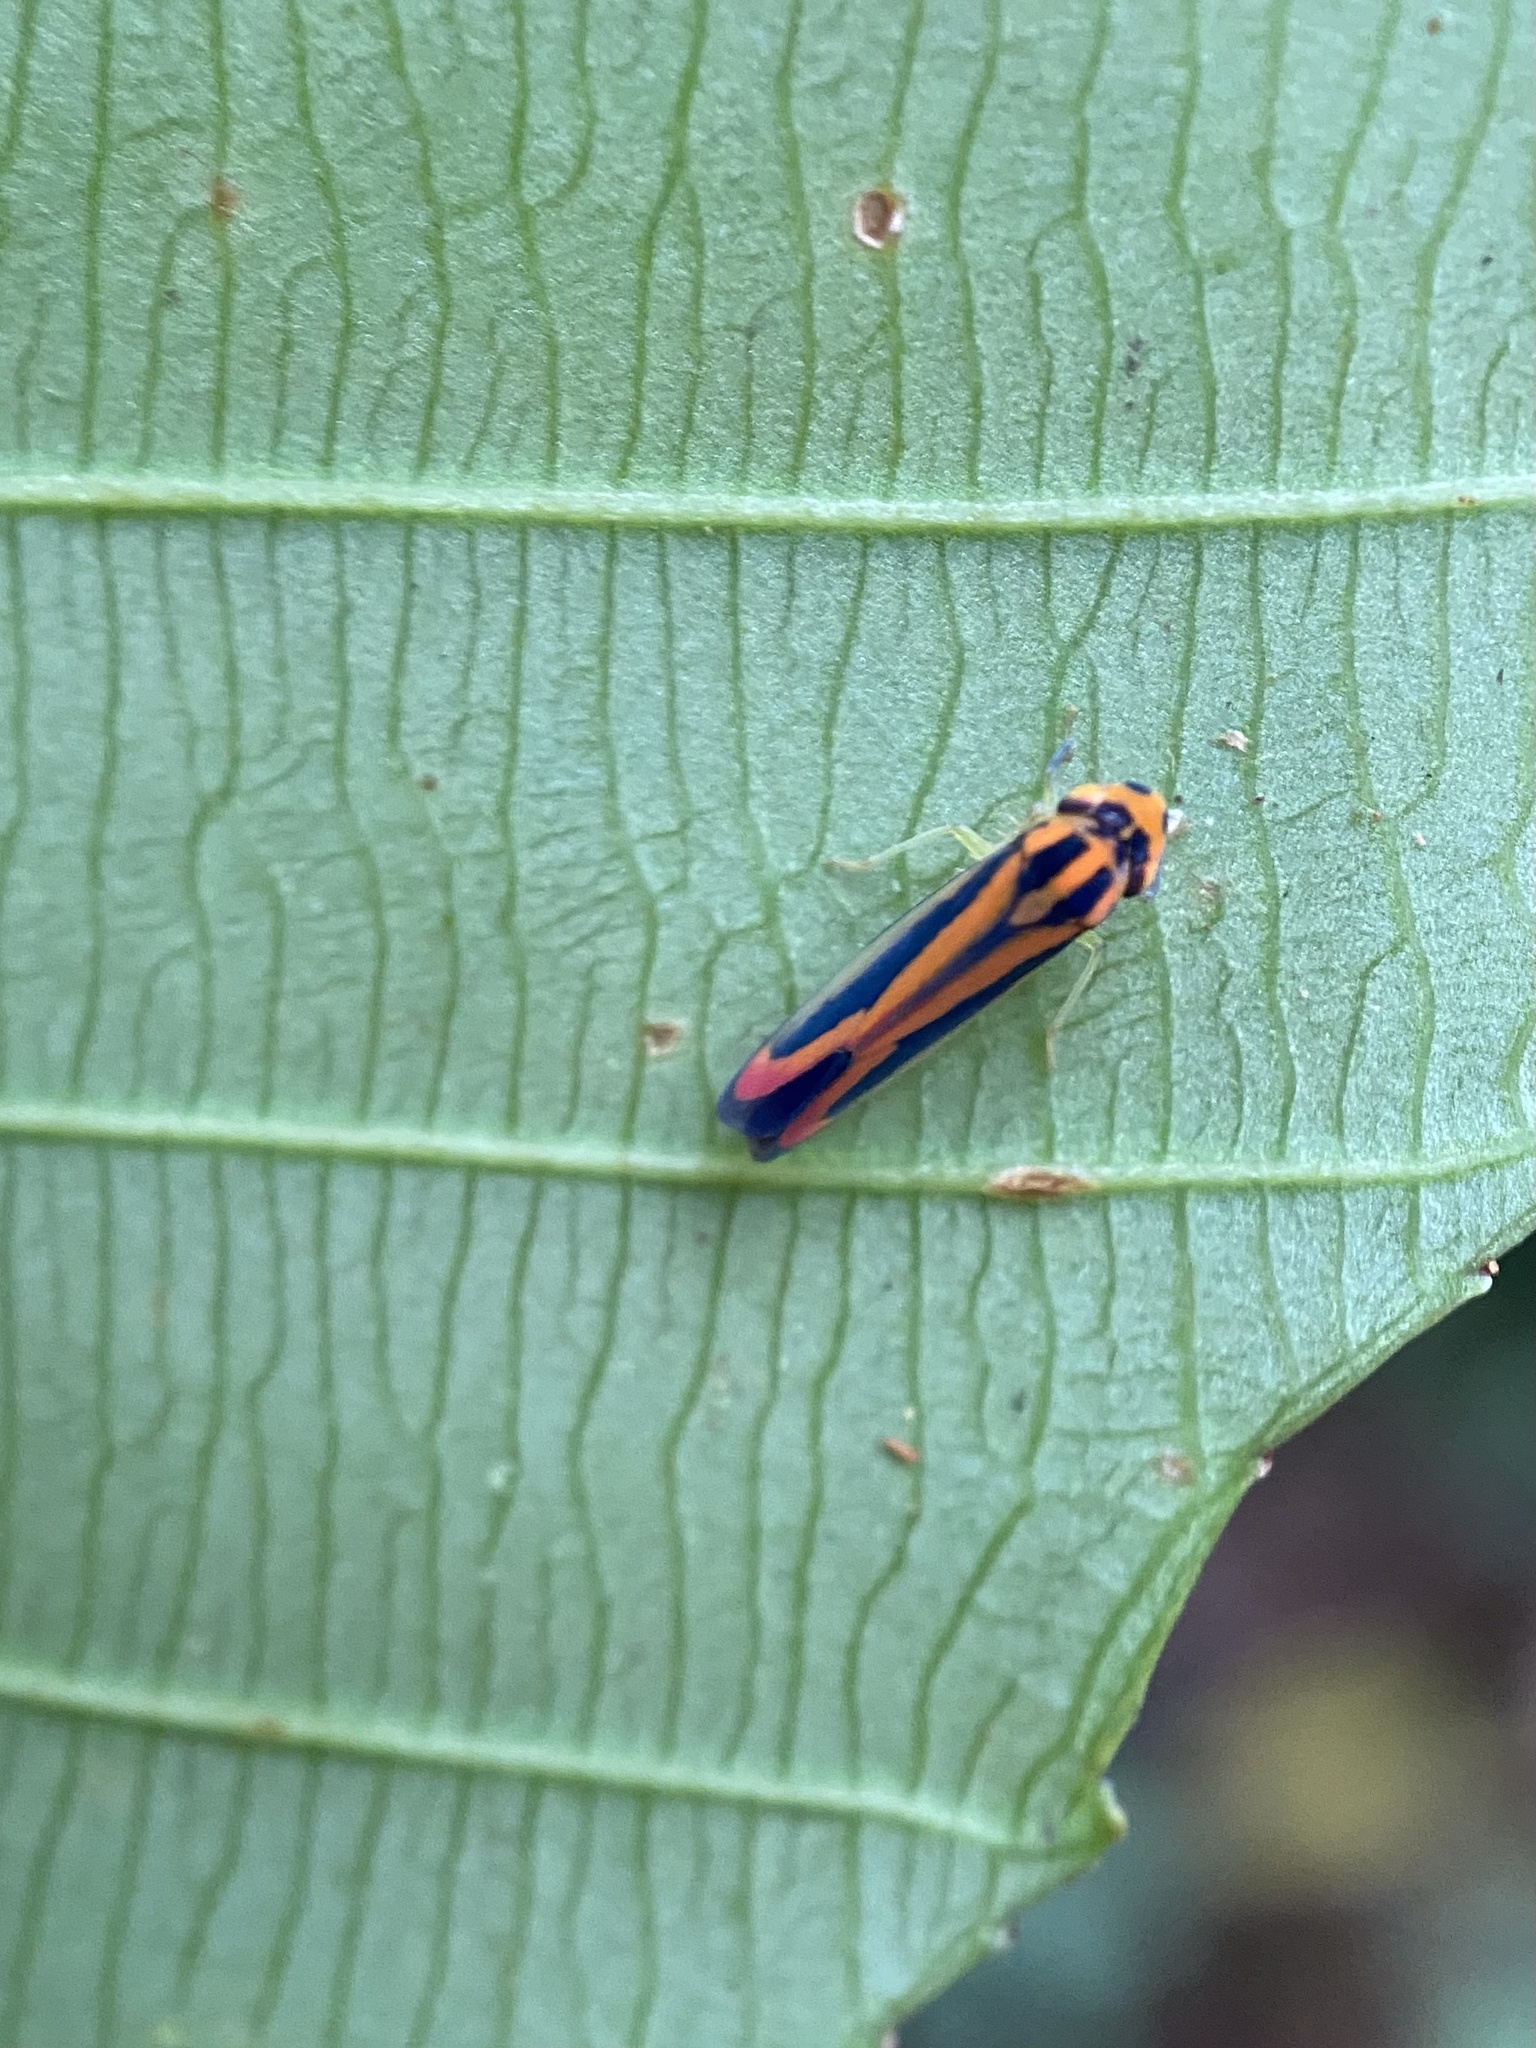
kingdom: Animalia
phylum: Arthropoda
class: Insecta
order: Hemiptera
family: Cicadellidae
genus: Soosiulus
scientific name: Soosiulus fucatus
